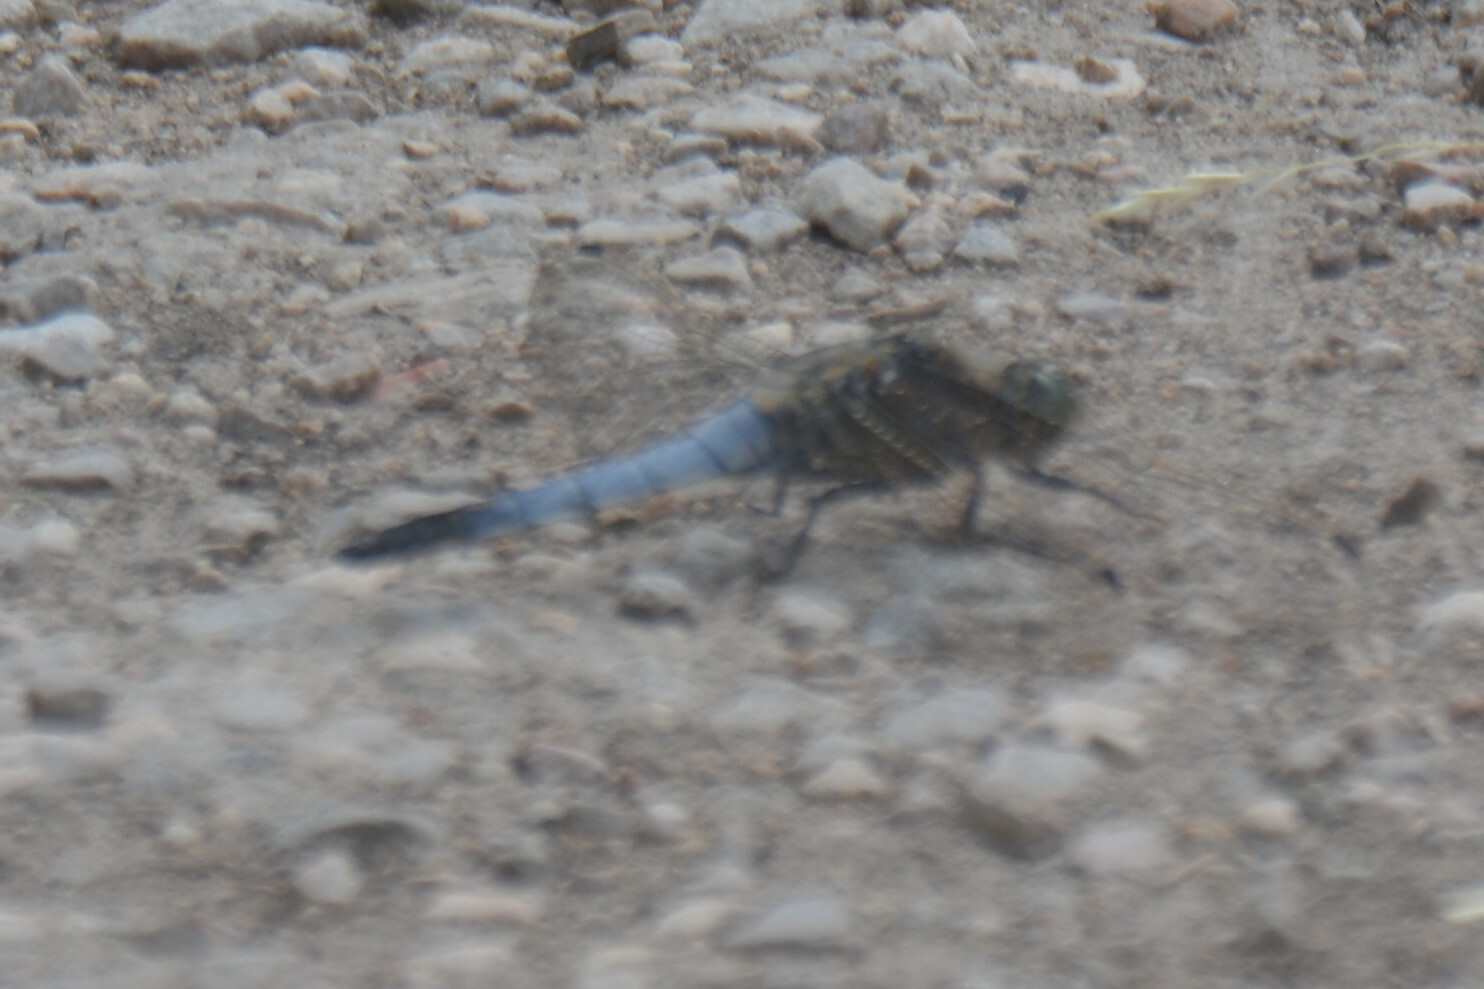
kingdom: Animalia
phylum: Arthropoda
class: Insecta
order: Odonata
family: Libellulidae
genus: Orthetrum
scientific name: Orthetrum cancellatum
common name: Black-tailed skimmer
